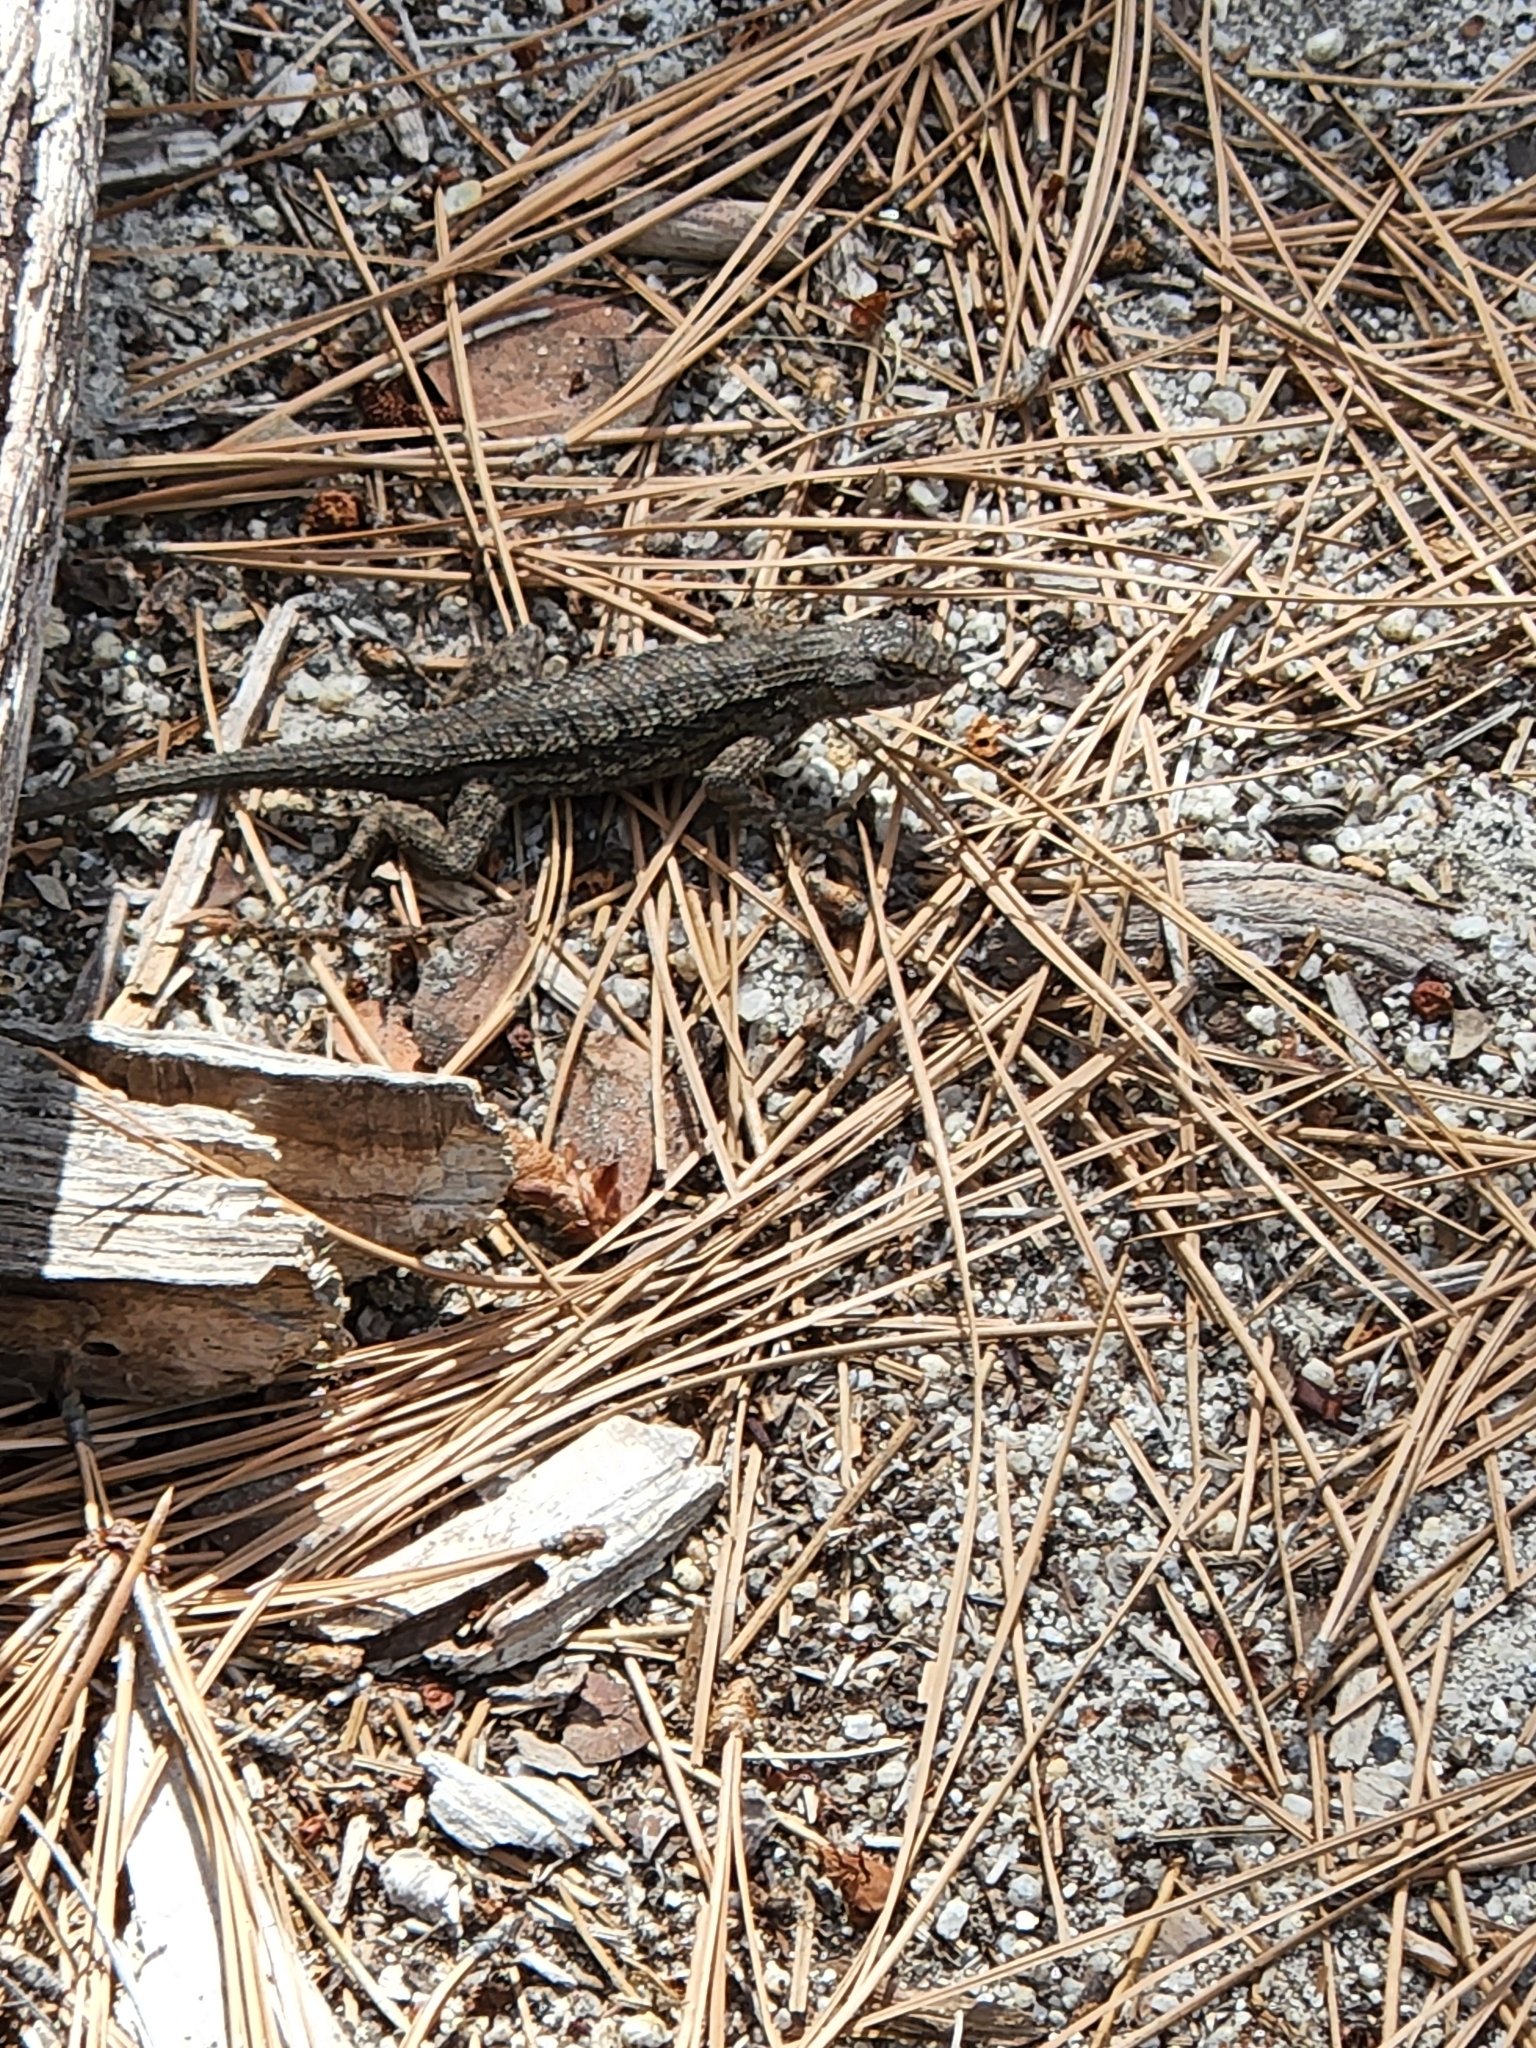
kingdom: Animalia
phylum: Chordata
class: Squamata
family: Phrynosomatidae
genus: Sceloporus
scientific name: Sceloporus occidentalis
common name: Western fence lizard
